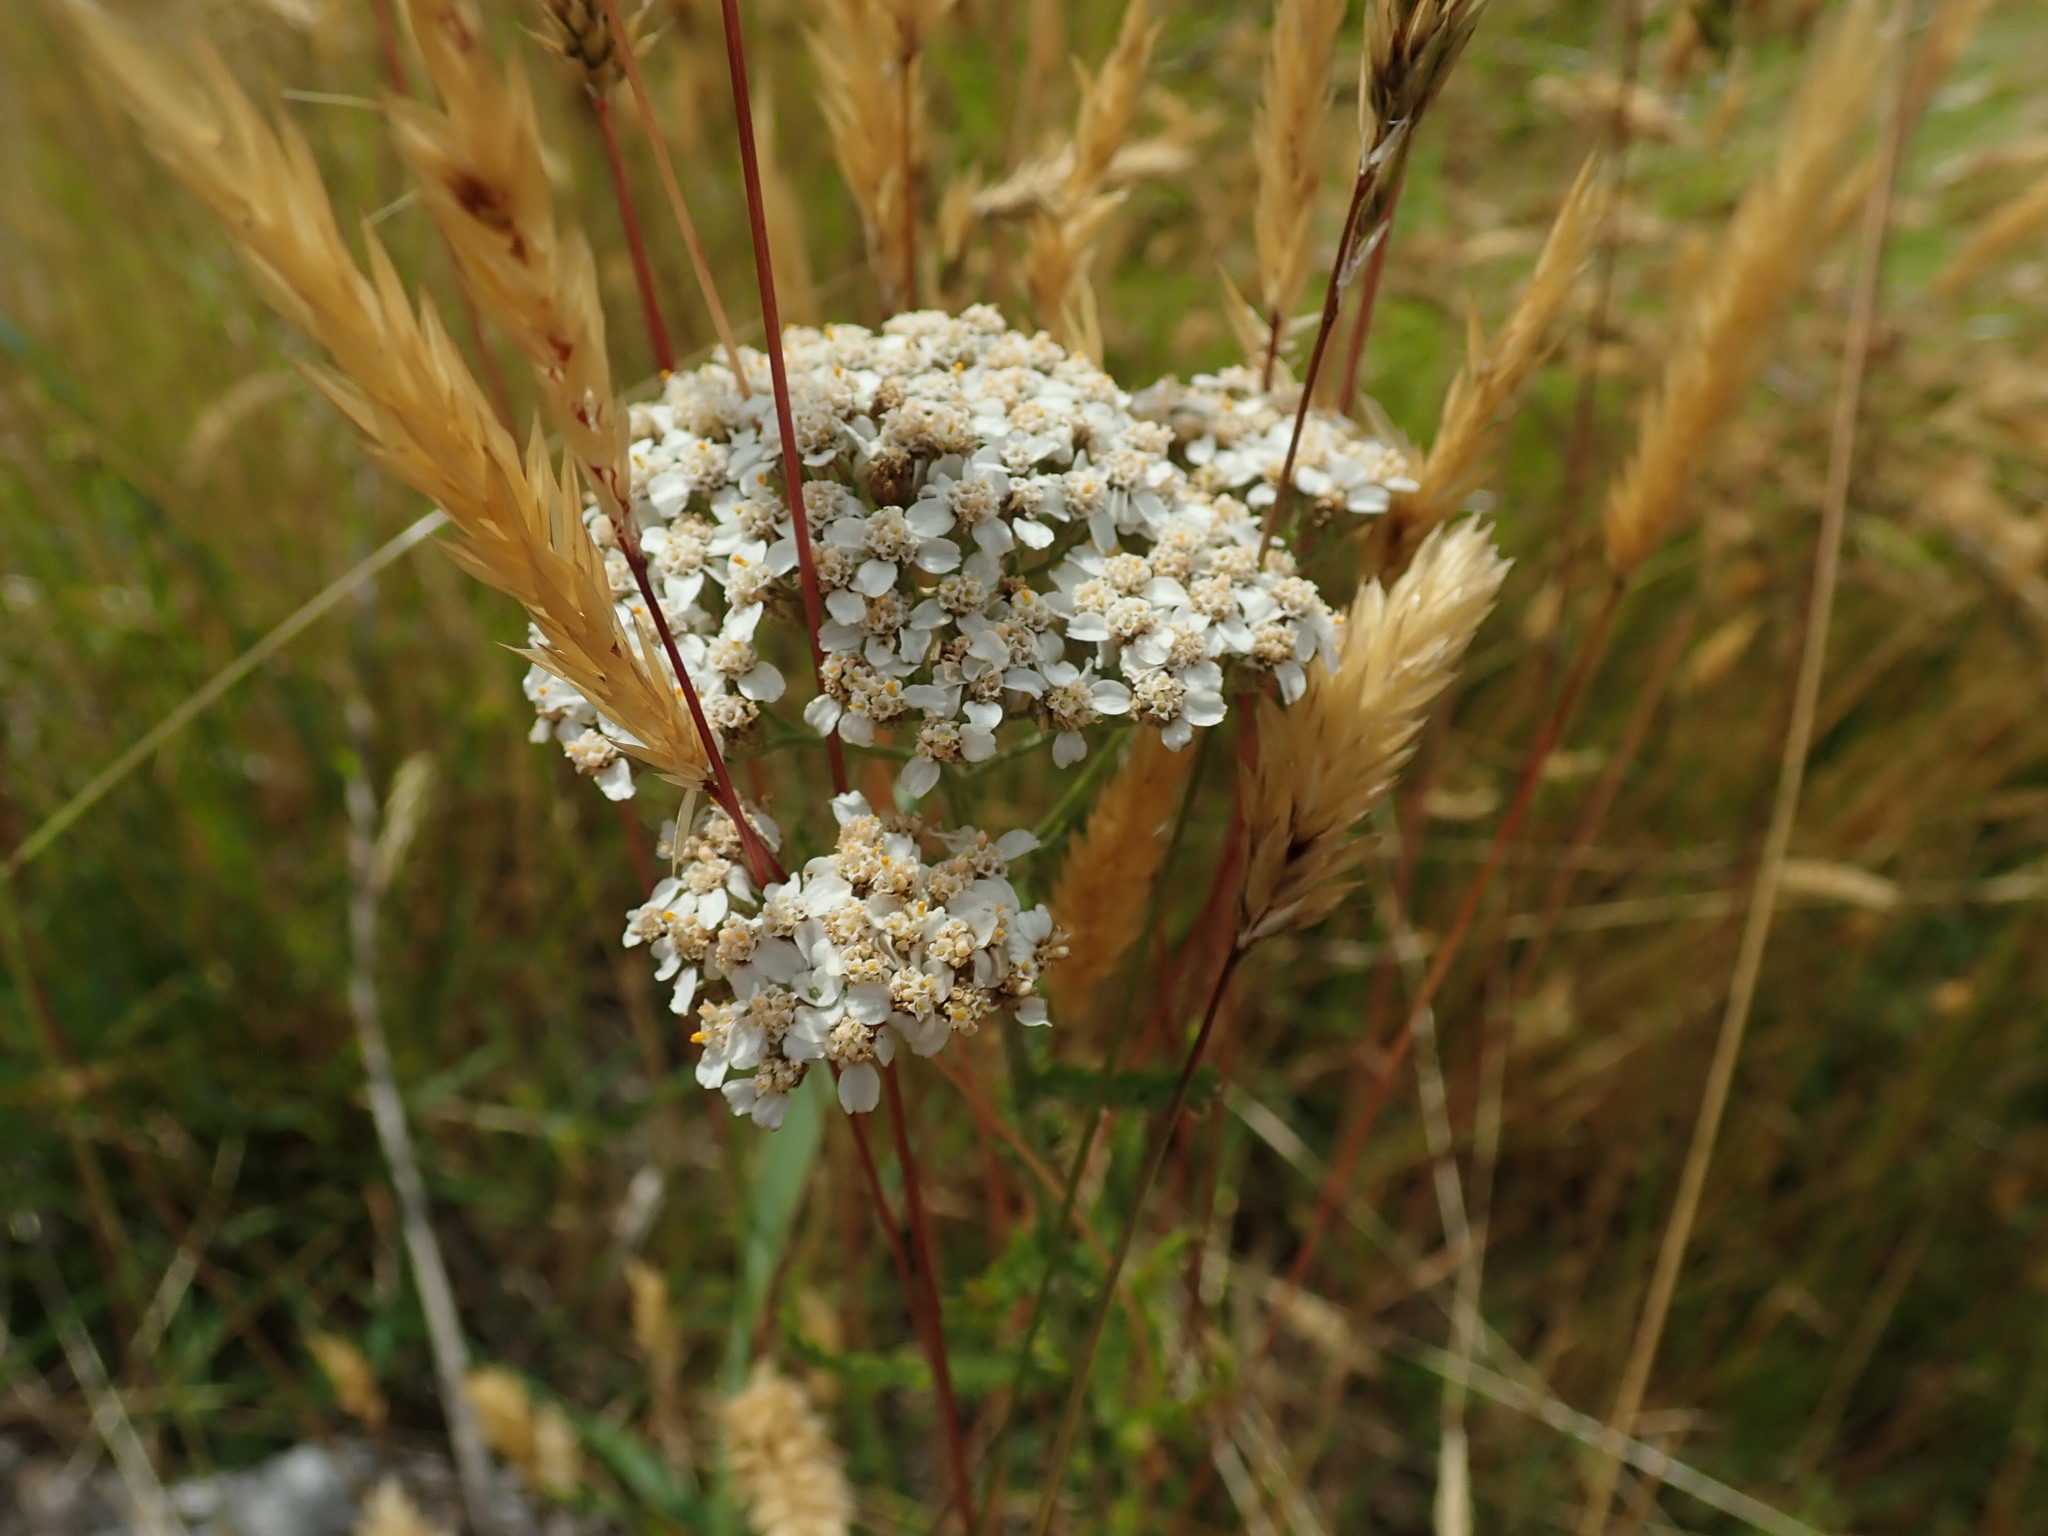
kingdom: Plantae
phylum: Tracheophyta
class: Magnoliopsida
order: Asterales
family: Asteraceae
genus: Achillea
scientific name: Achillea millefolium
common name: Yarrow
